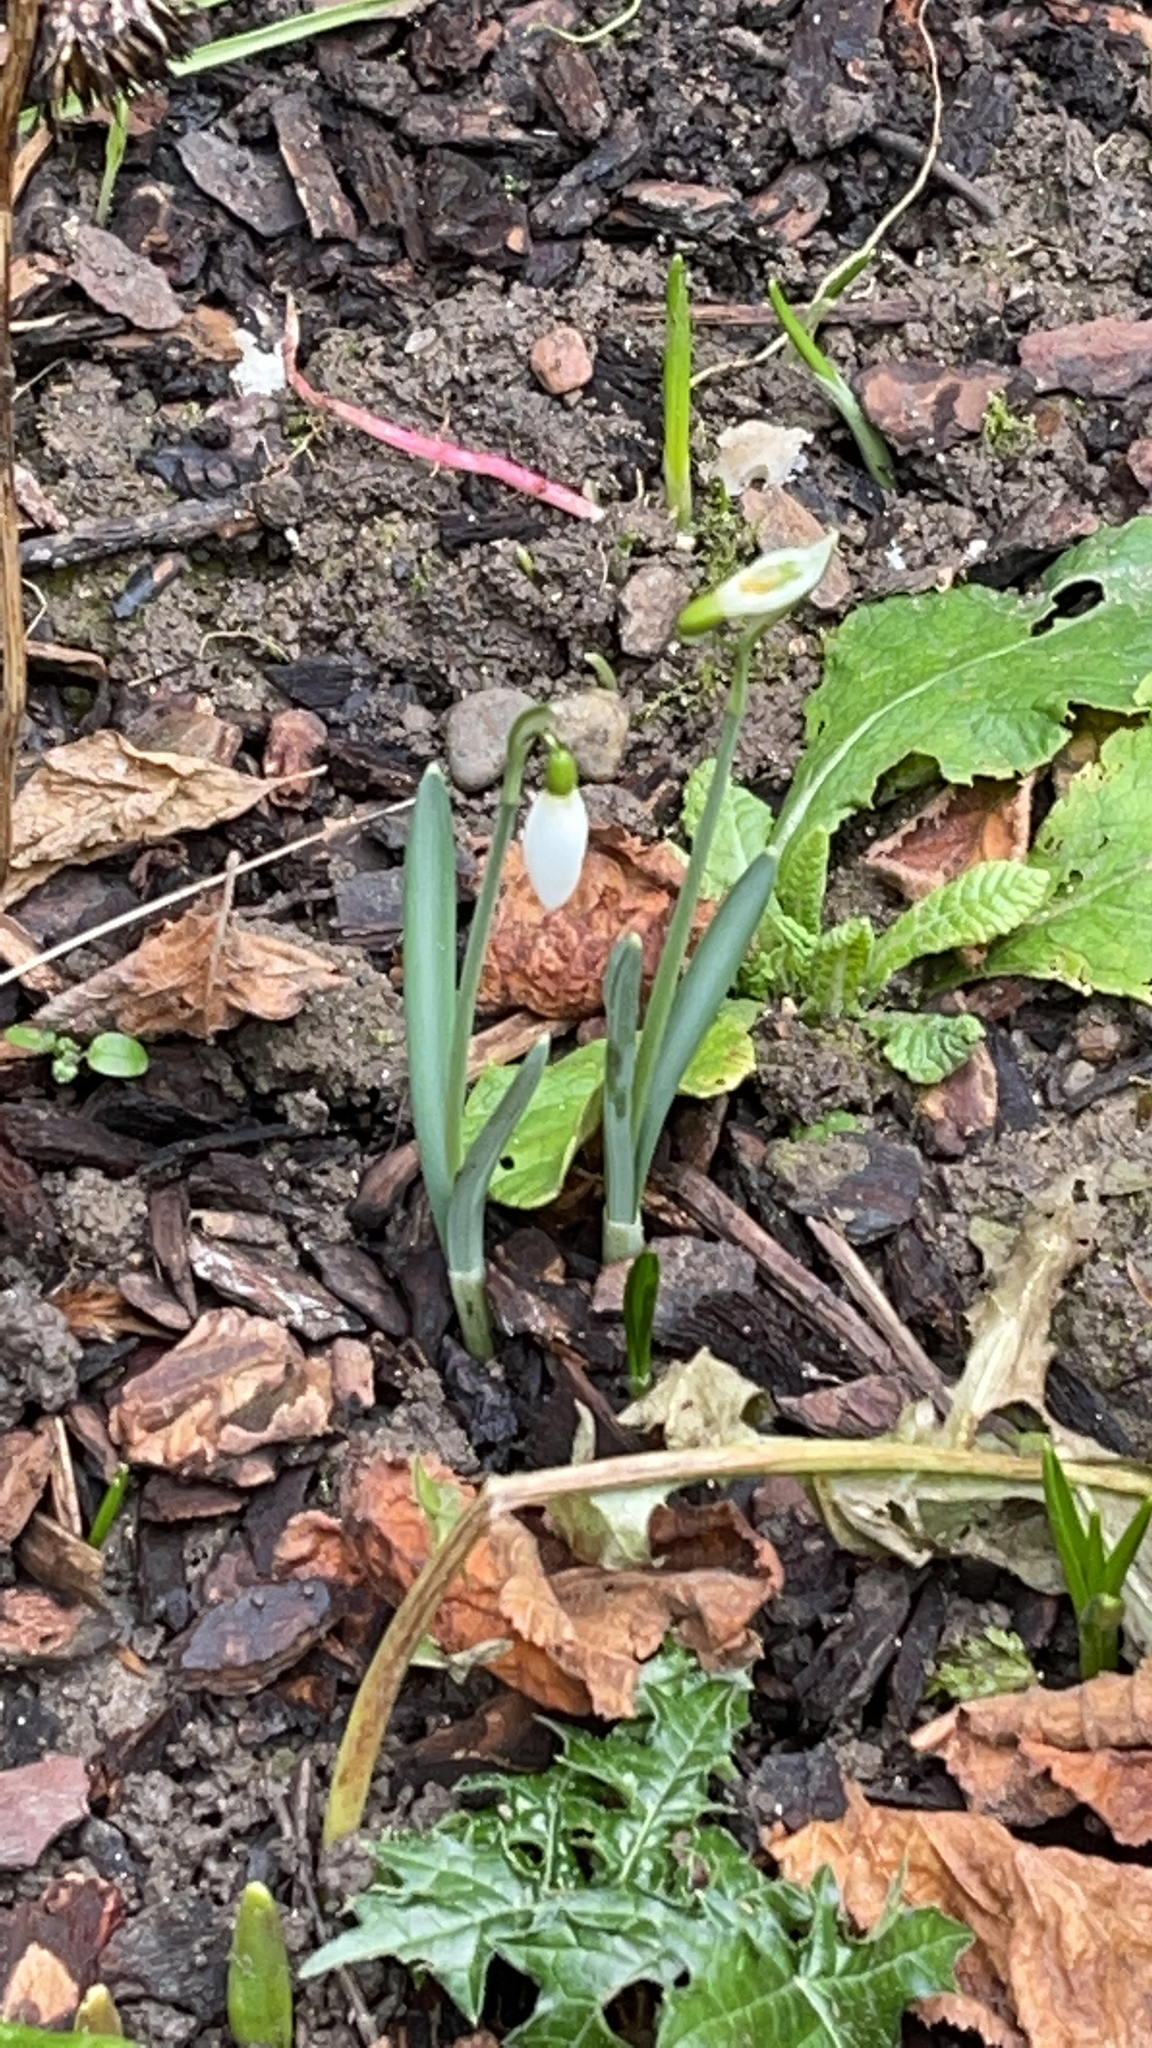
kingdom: Plantae
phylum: Tracheophyta
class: Liliopsida
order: Asparagales
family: Amaryllidaceae
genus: Galanthus
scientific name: Galanthus nivalis
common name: Snowdrop
